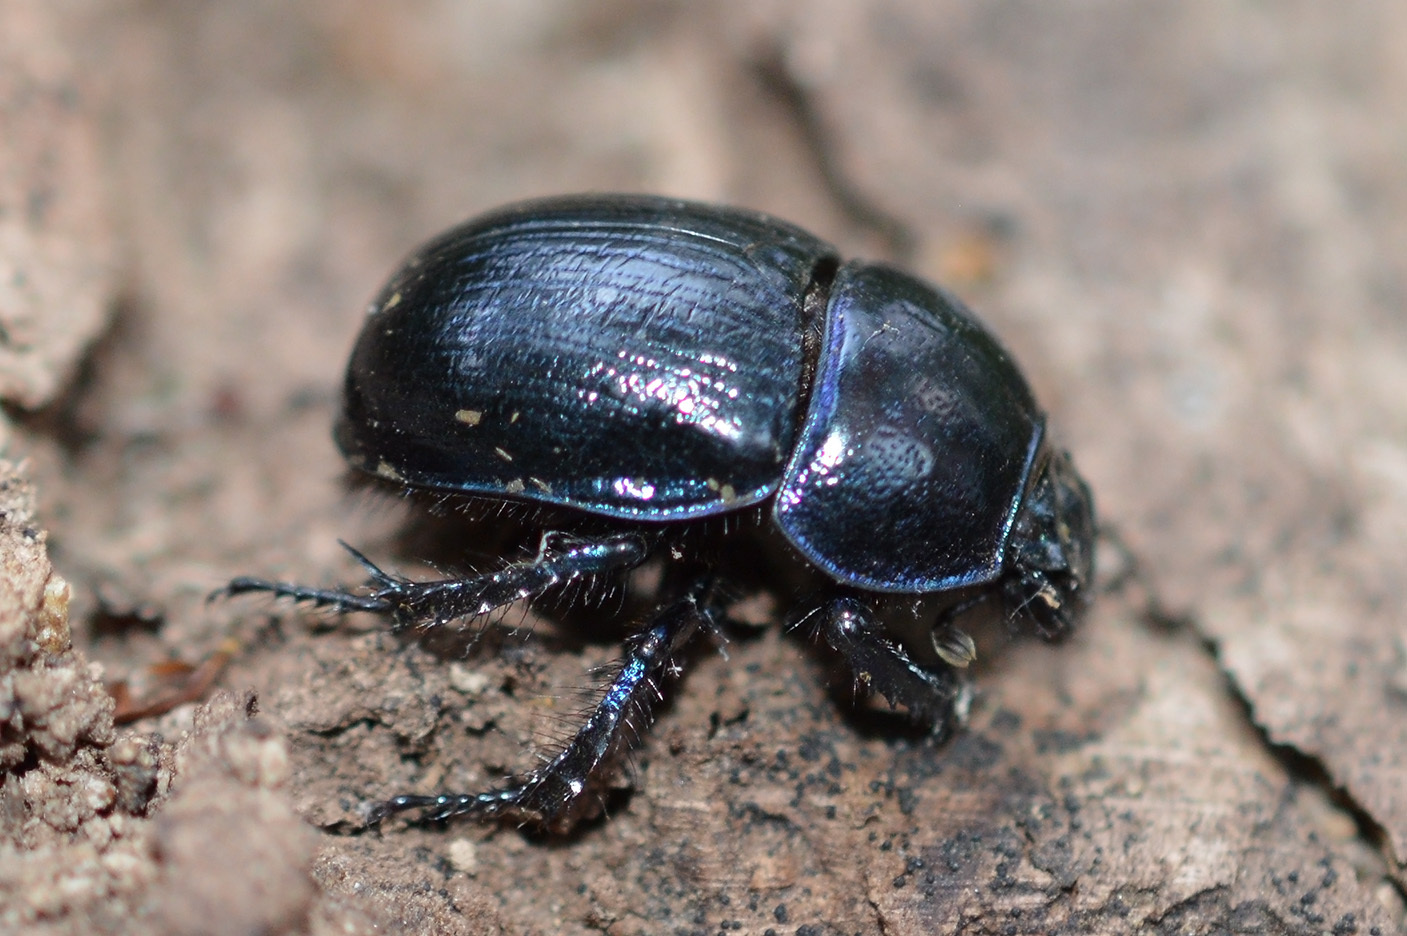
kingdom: Animalia
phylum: Arthropoda
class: Insecta
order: Coleoptera
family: Geotrupidae
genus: Anoplotrupes
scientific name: Anoplotrupes stercorosus
